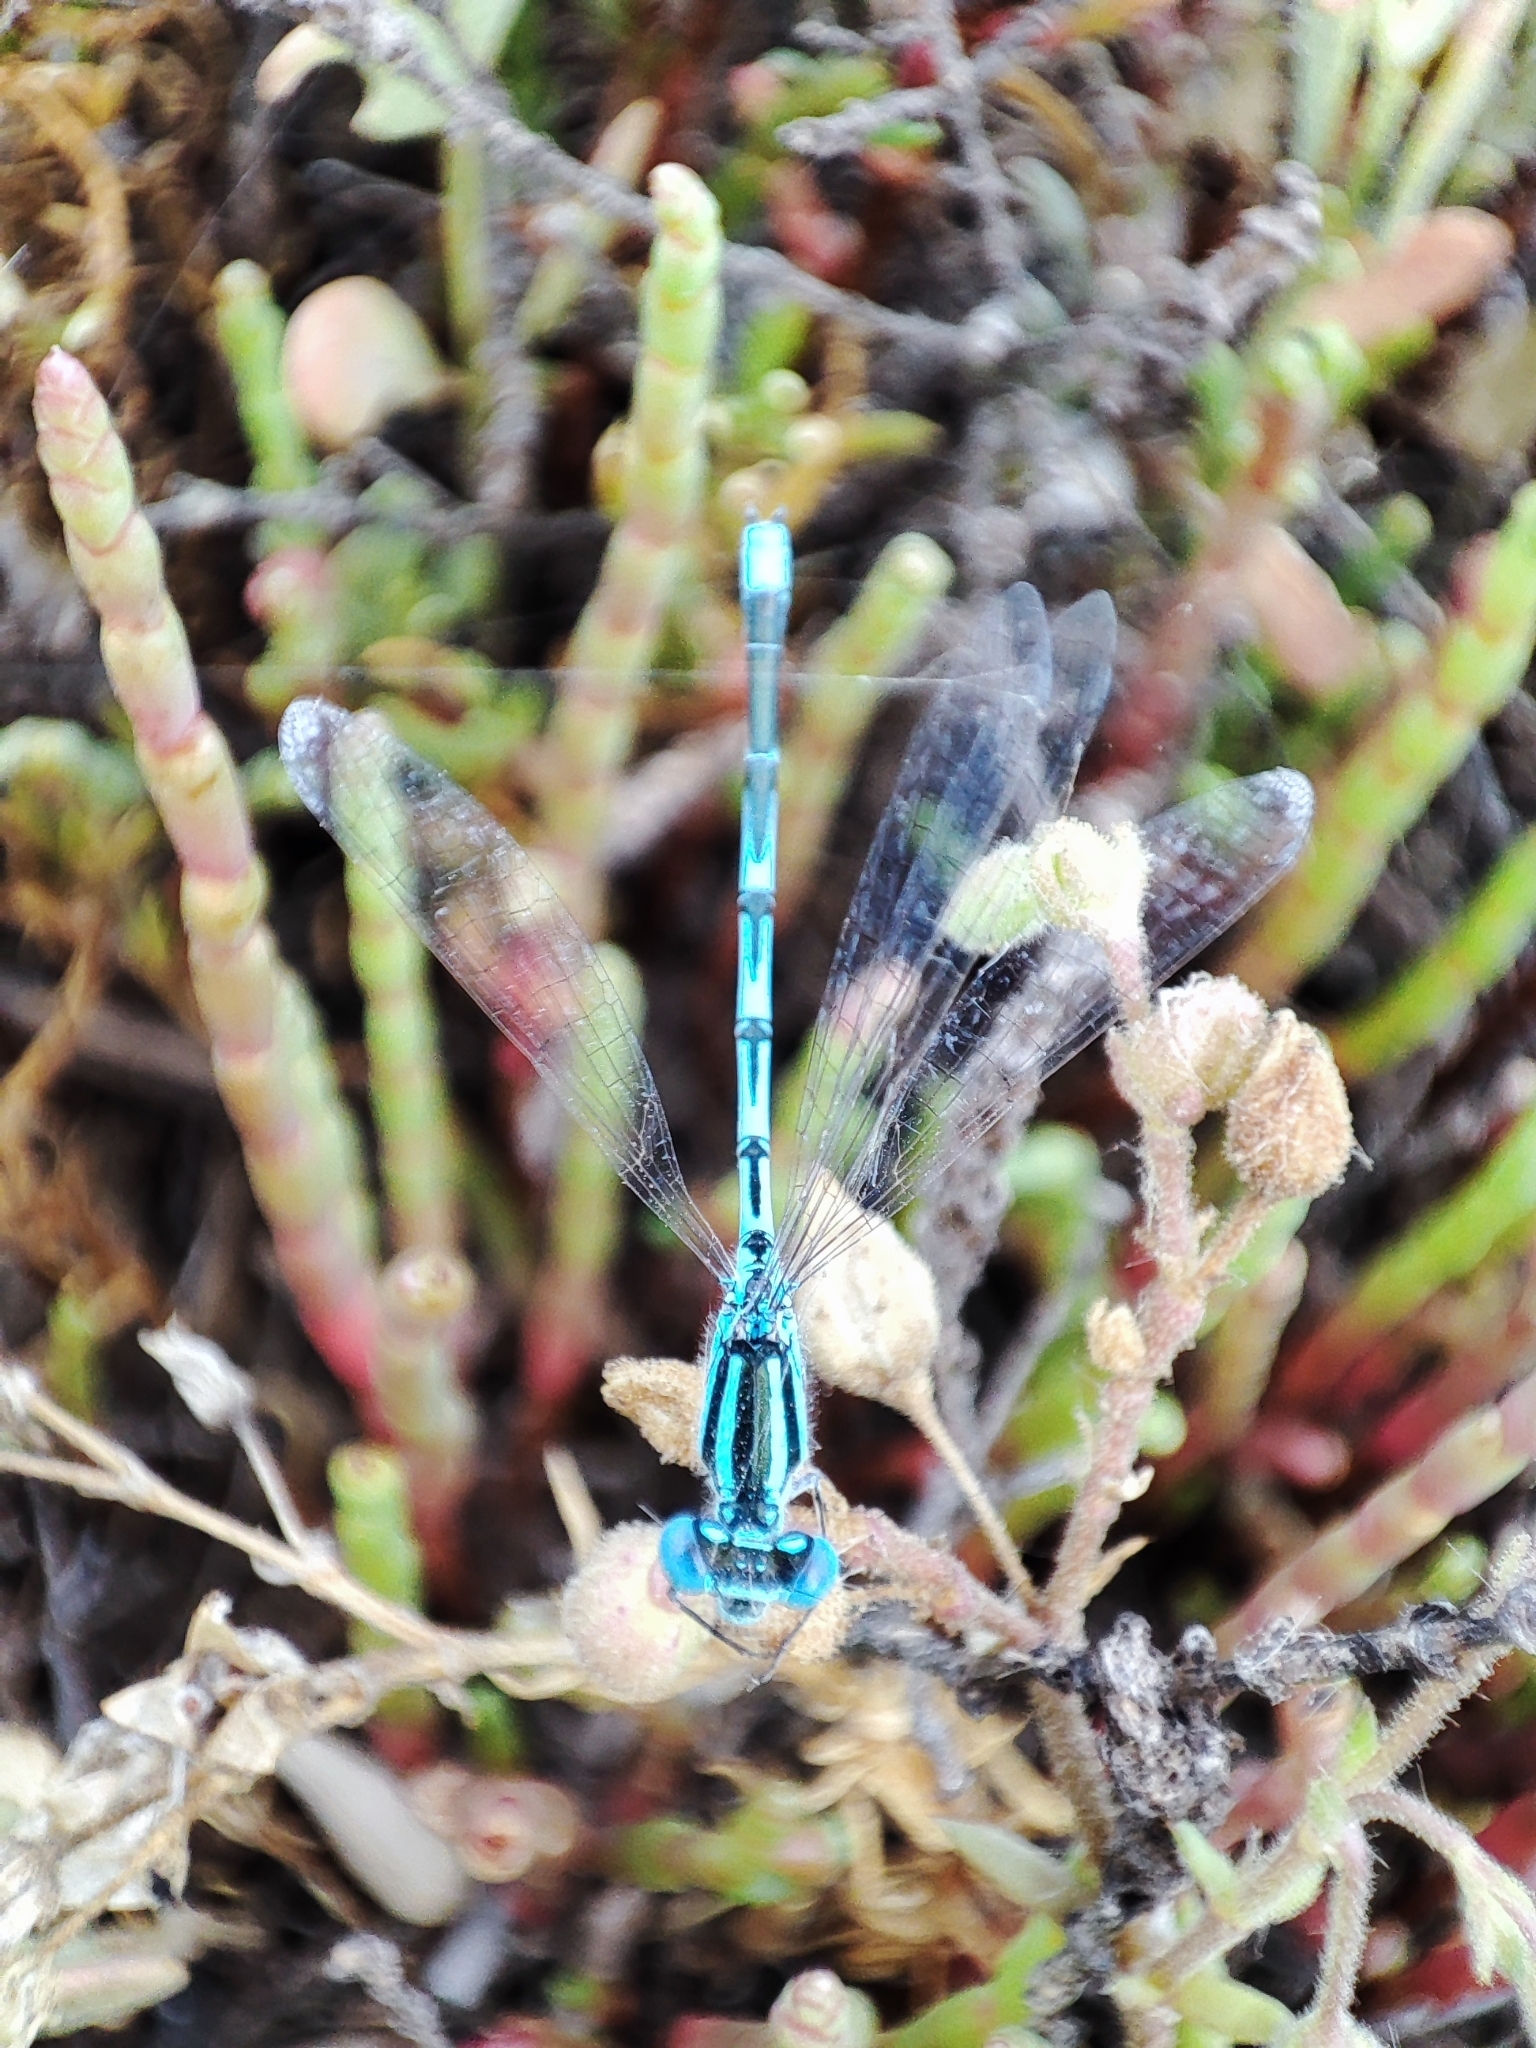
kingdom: Animalia
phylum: Arthropoda
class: Insecta
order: Odonata
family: Coenagrionidae
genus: Erythromma
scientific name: Erythromma lindenii
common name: Blue-eye
